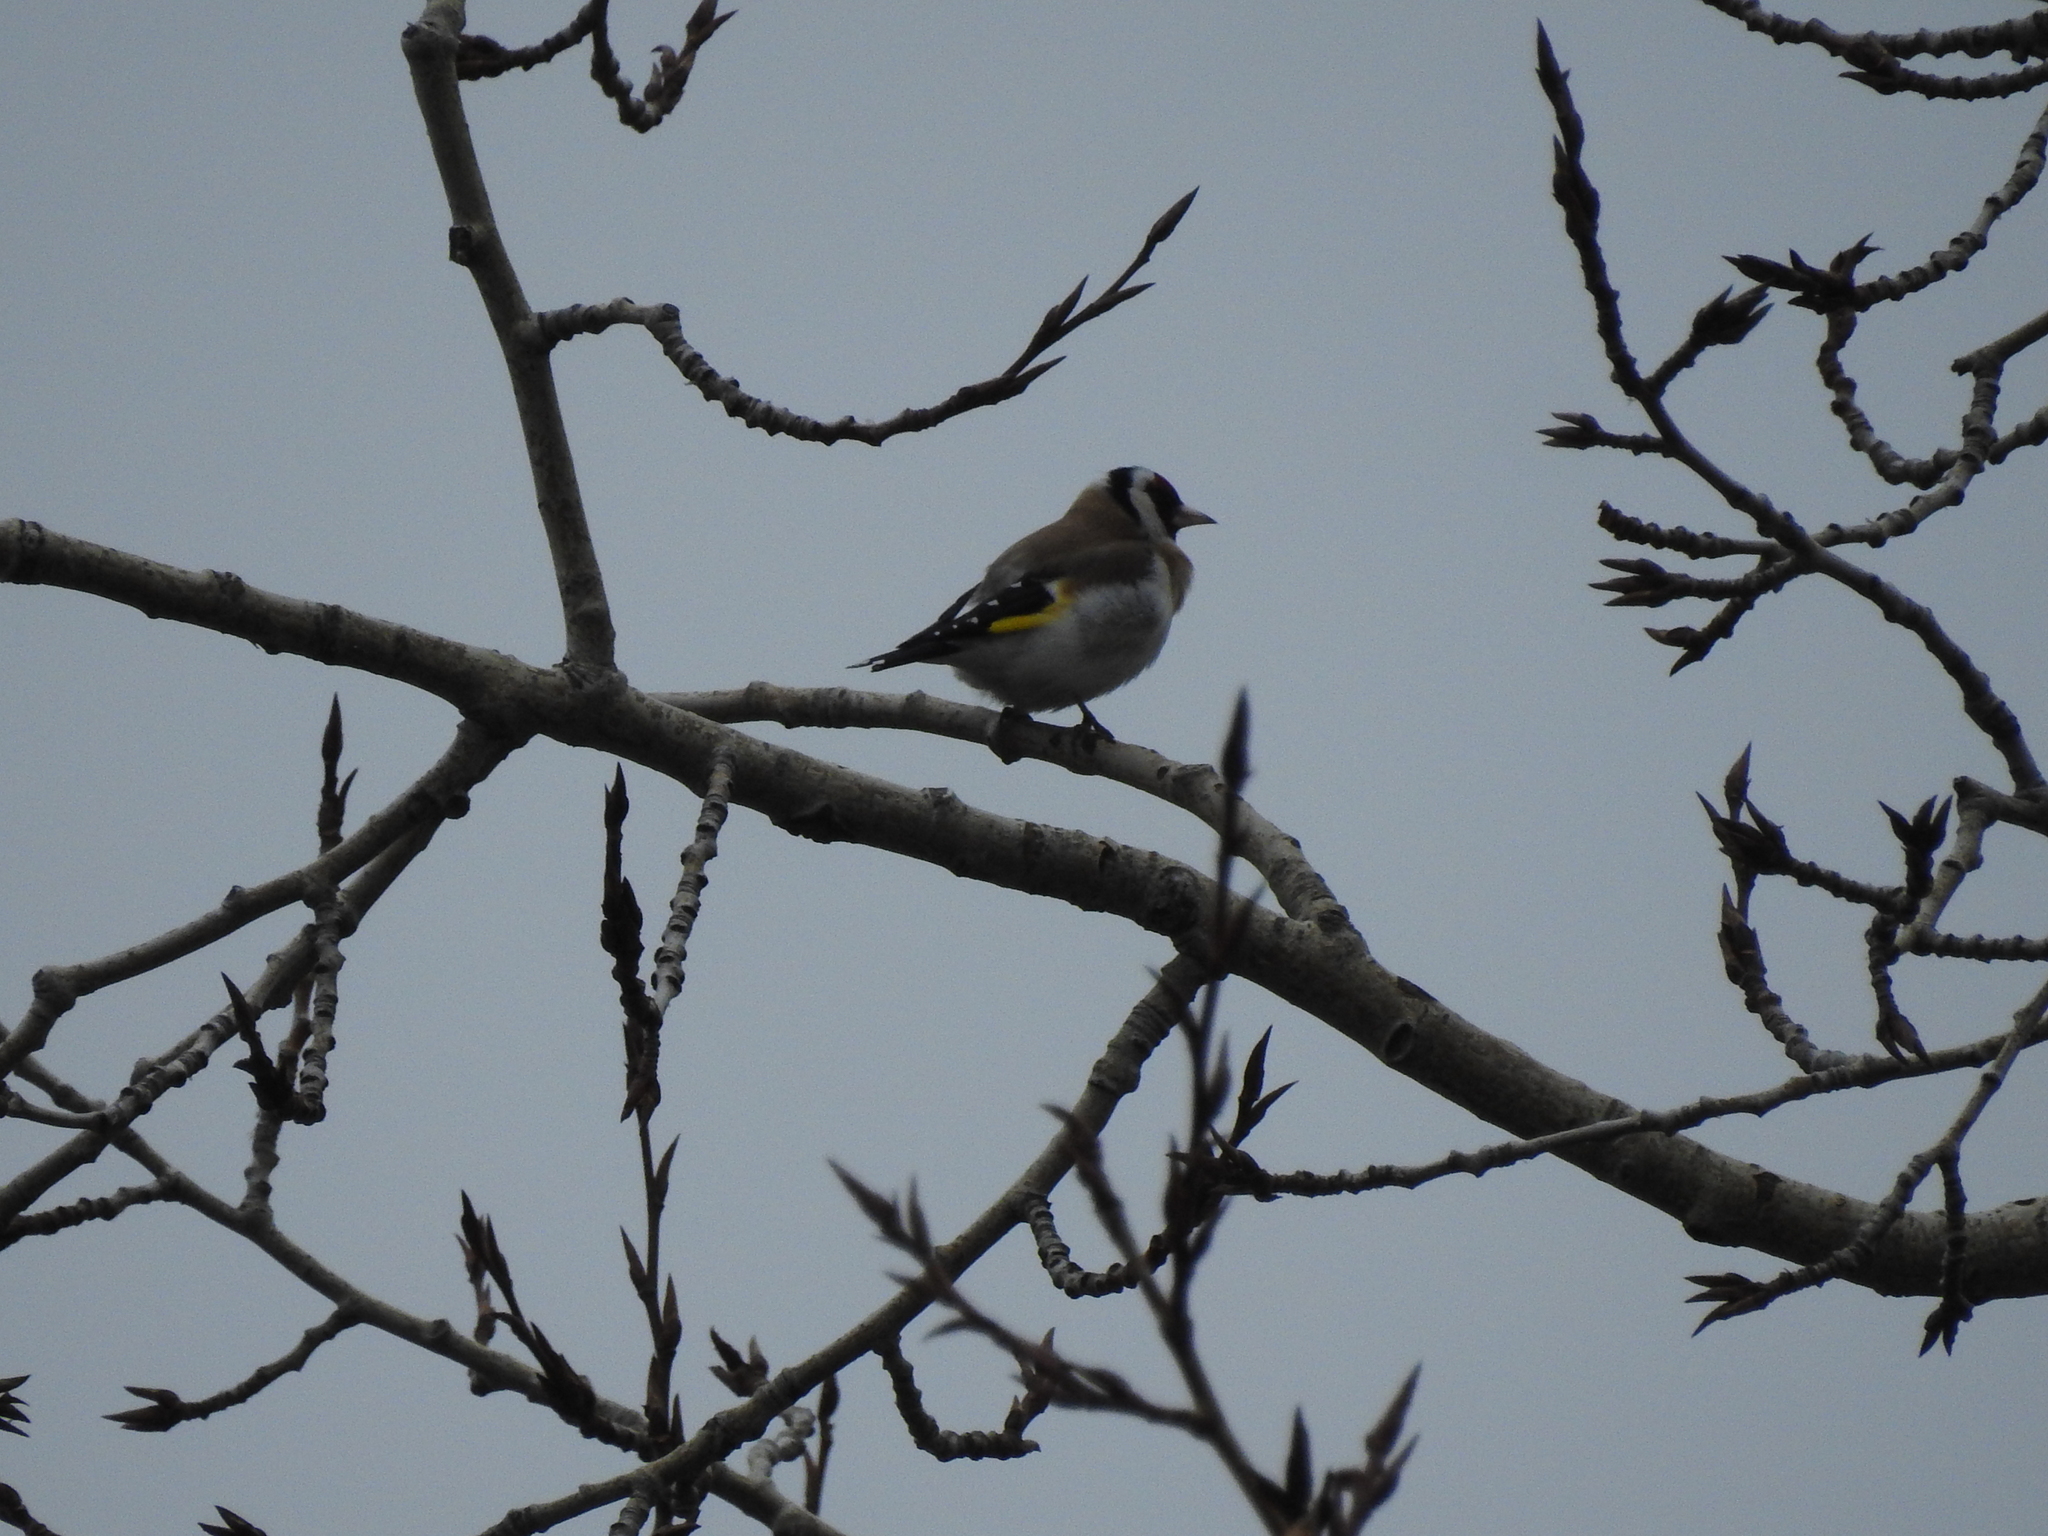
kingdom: Animalia
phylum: Chordata
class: Aves
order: Passeriformes
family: Fringillidae
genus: Carduelis
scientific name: Carduelis carduelis
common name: European goldfinch
